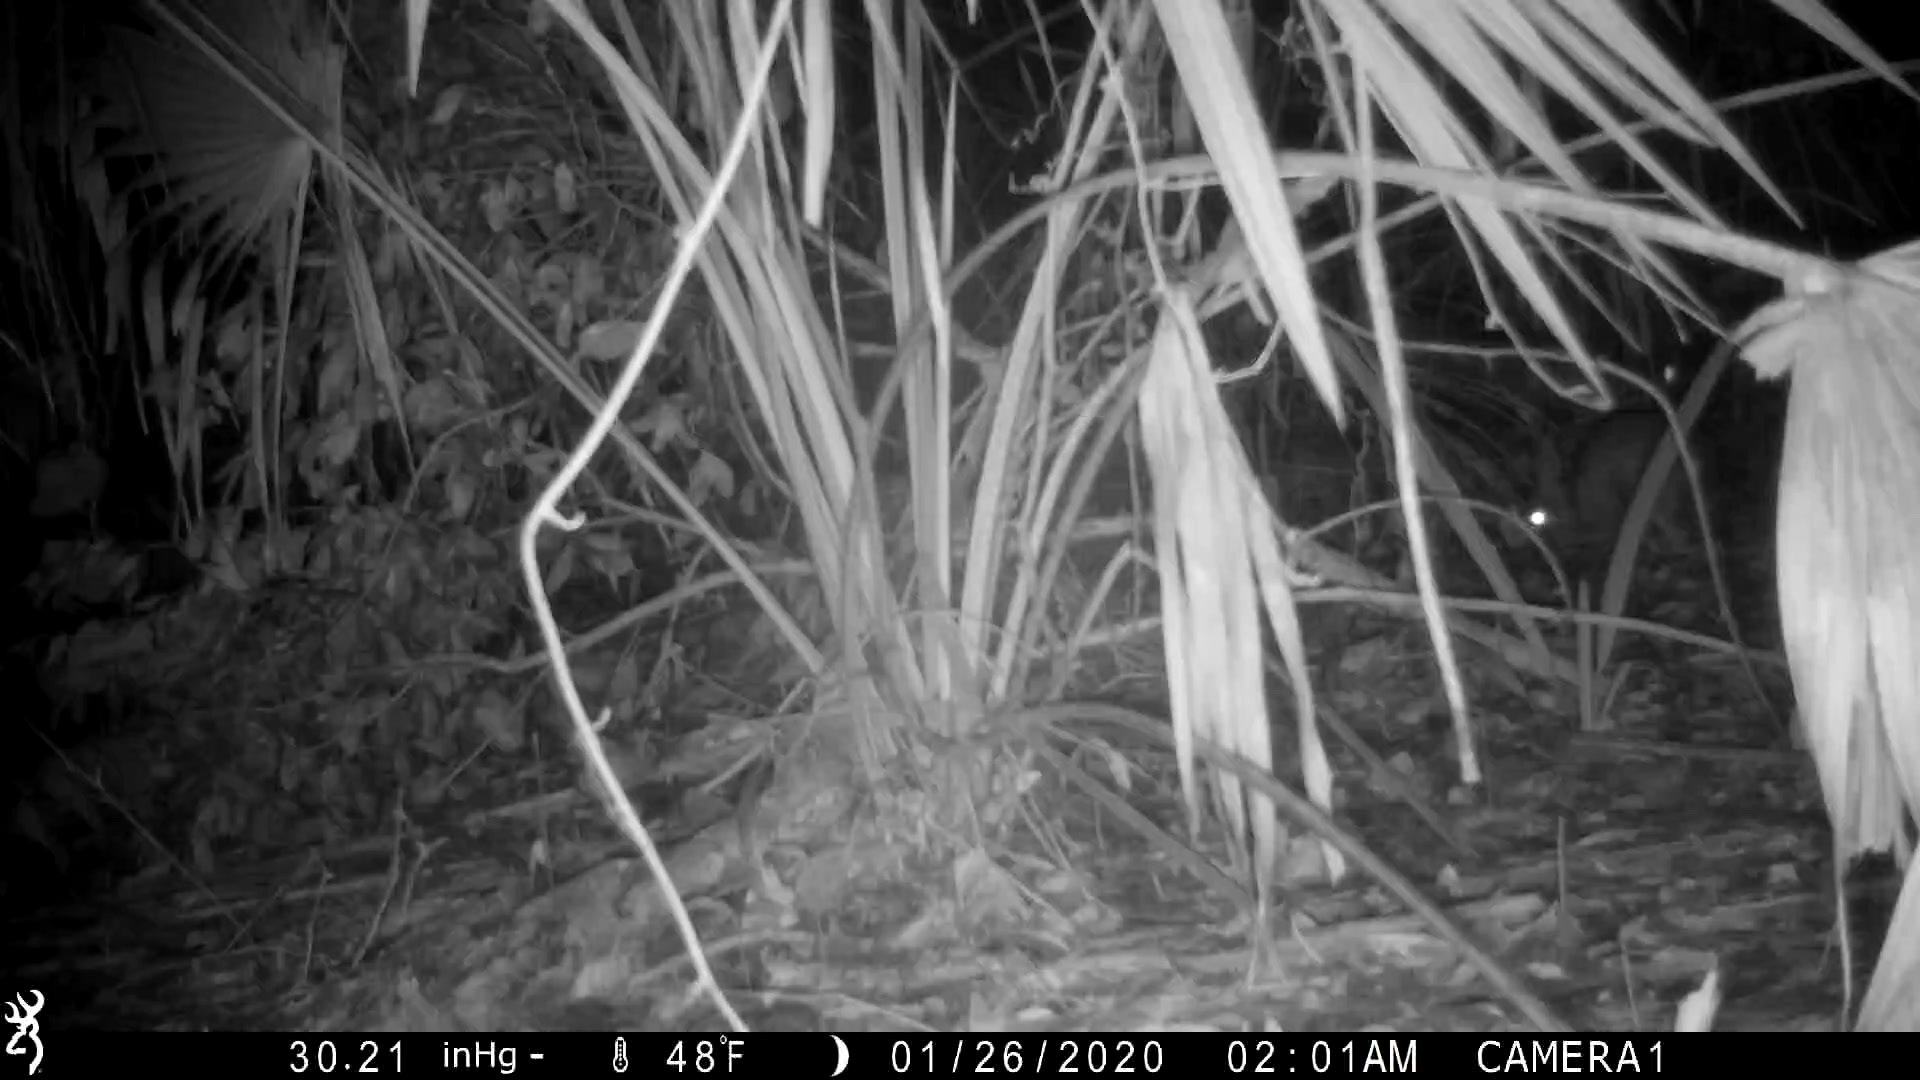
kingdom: Animalia
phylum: Chordata
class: Mammalia
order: Lagomorpha
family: Leporidae
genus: Sylvilagus
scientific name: Sylvilagus floridanus
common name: Eastern cottontail
